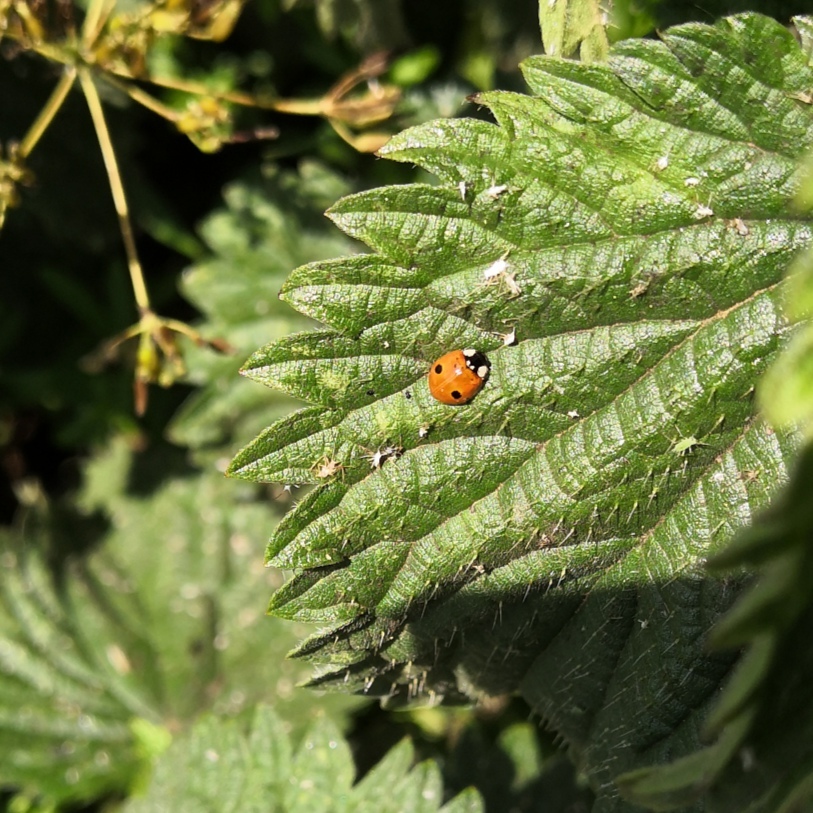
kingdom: Animalia
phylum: Arthropoda
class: Insecta
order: Coleoptera
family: Coccinellidae
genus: Adalia
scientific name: Adalia bipunctata
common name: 2-spot ladybird
